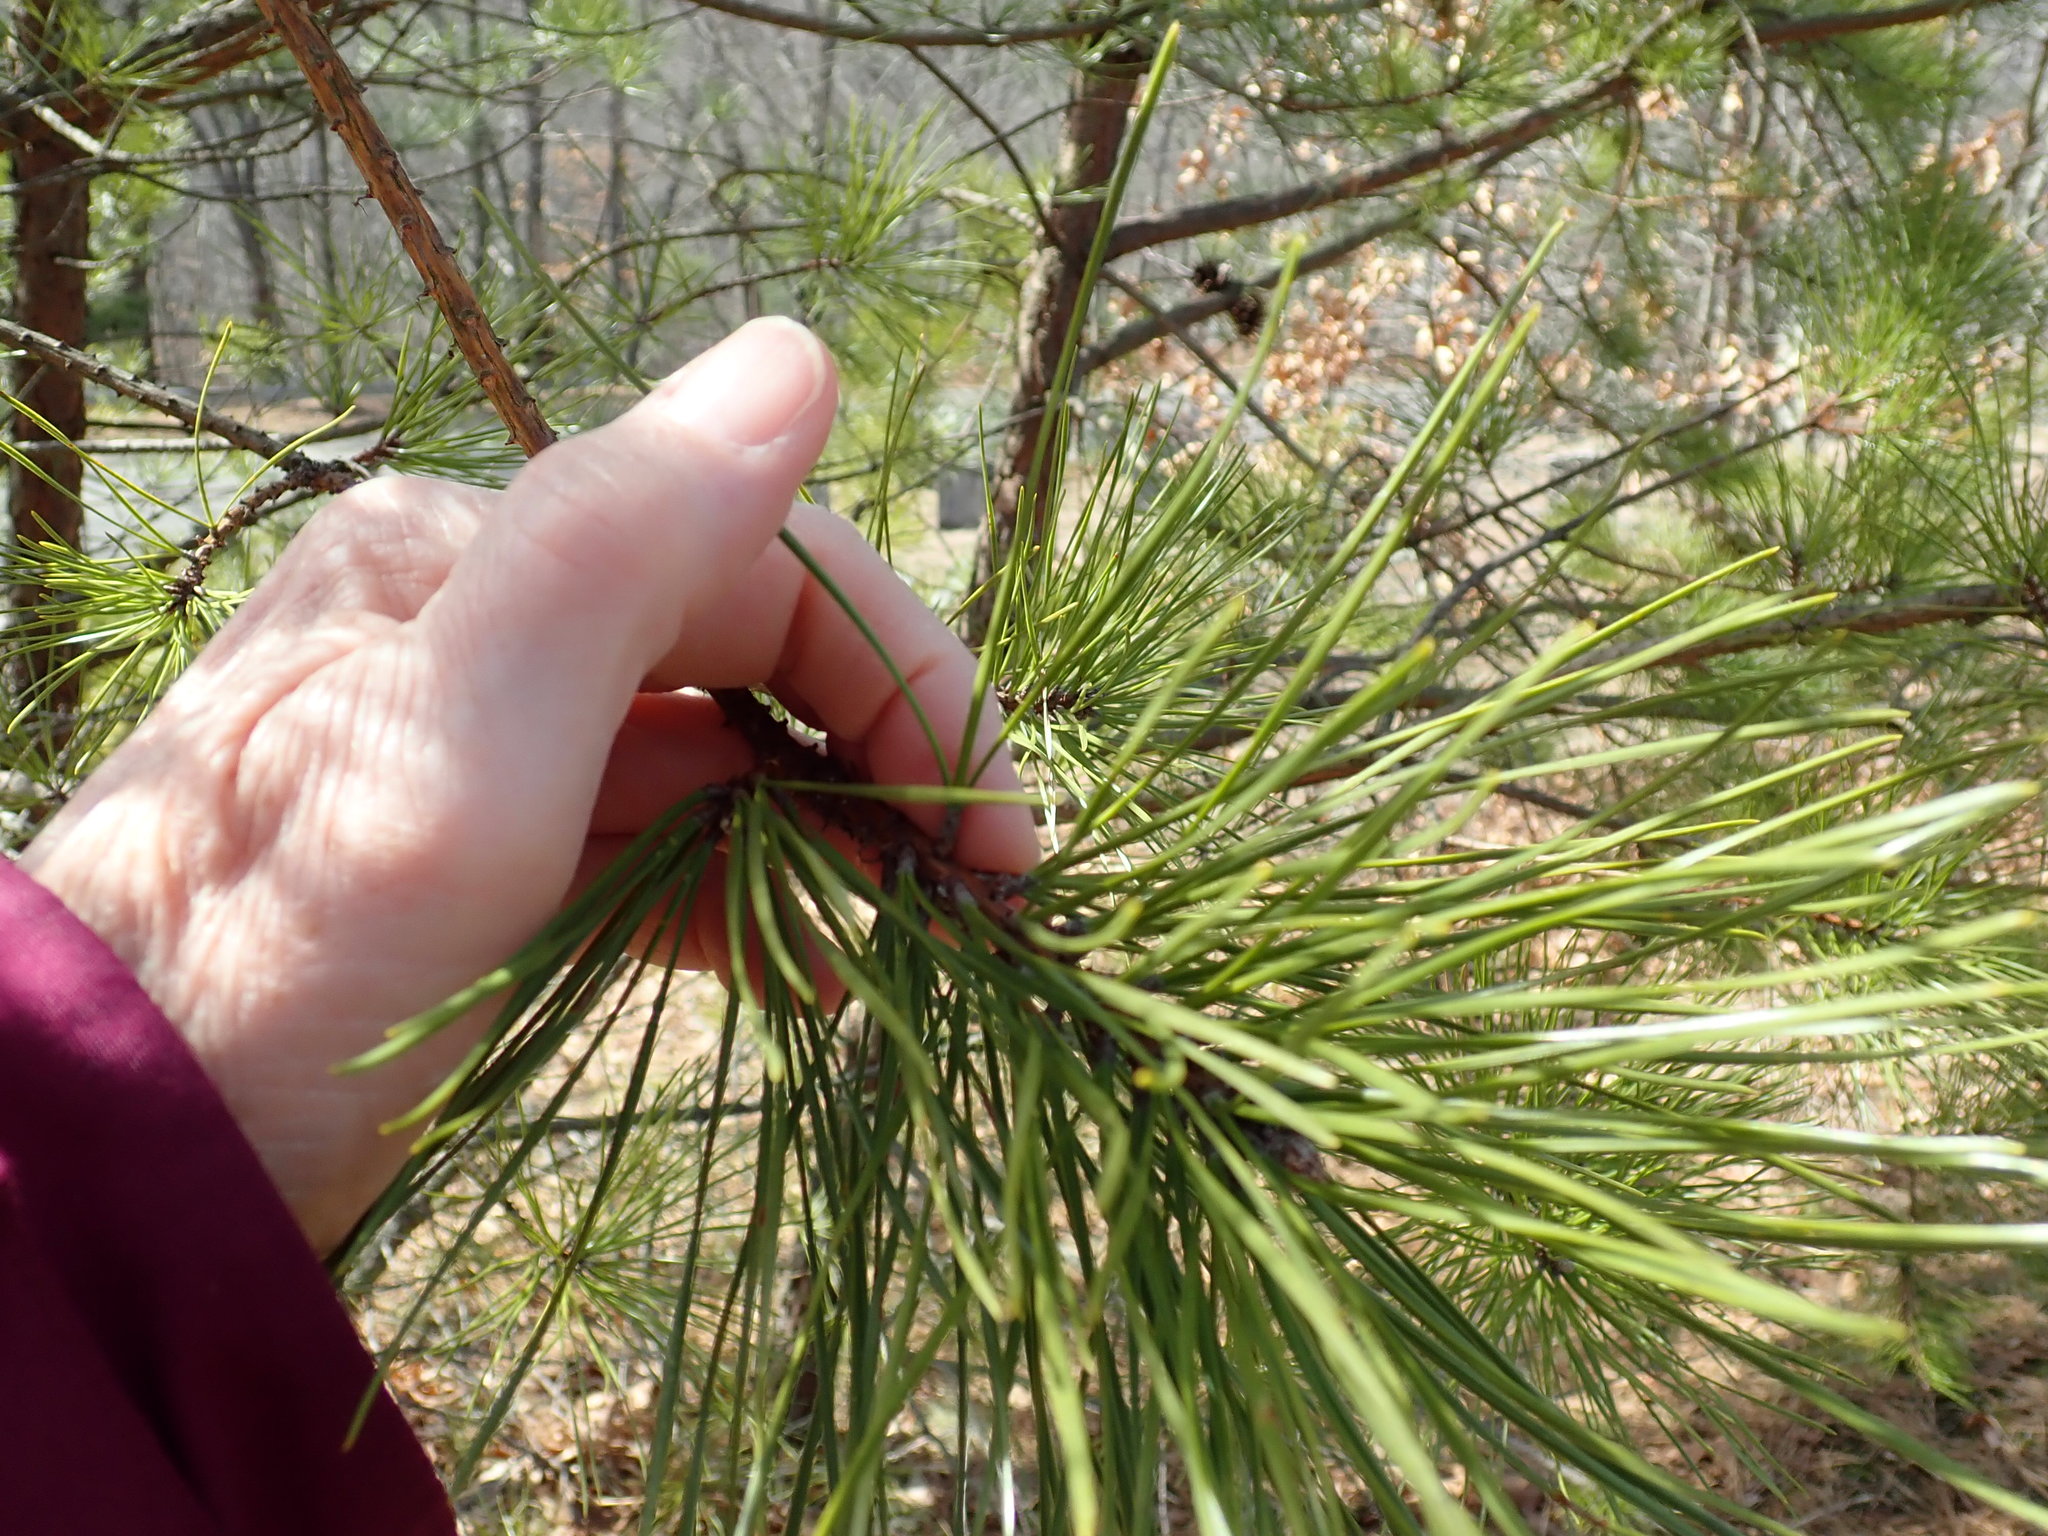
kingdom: Plantae
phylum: Tracheophyta
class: Pinopsida
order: Pinales
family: Pinaceae
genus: Pinus
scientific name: Pinus rigida
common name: Pitch pine
